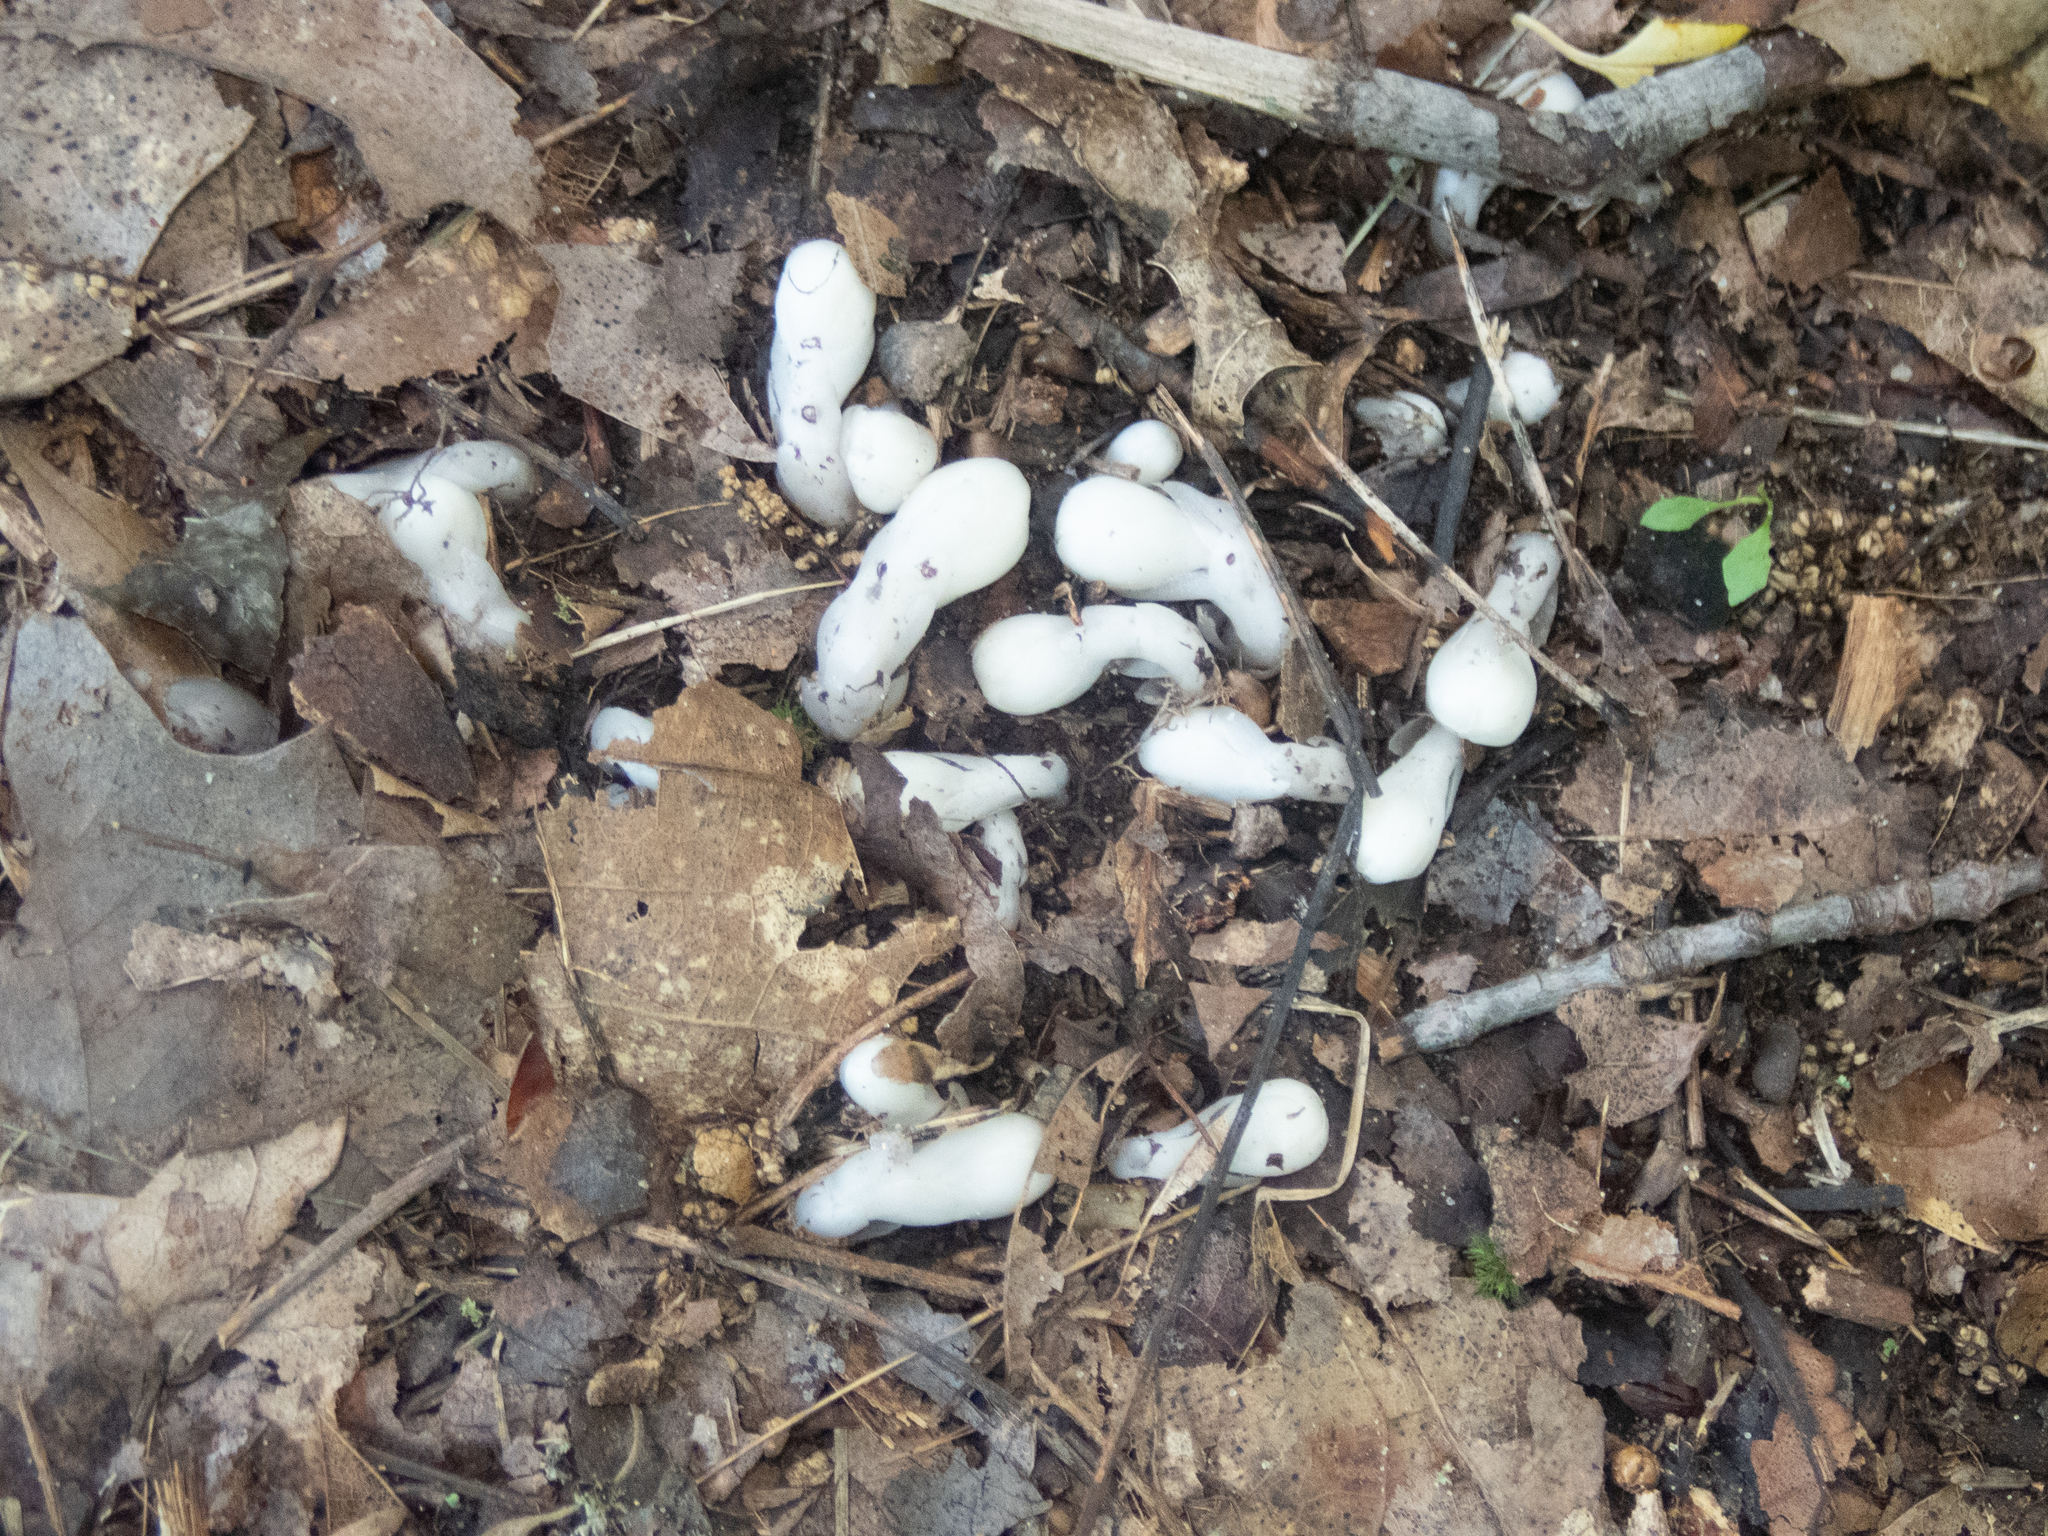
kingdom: Plantae
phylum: Tracheophyta
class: Magnoliopsida
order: Ericales
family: Ericaceae
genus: Monotropa
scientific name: Monotropa uniflora
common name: Convulsion root
